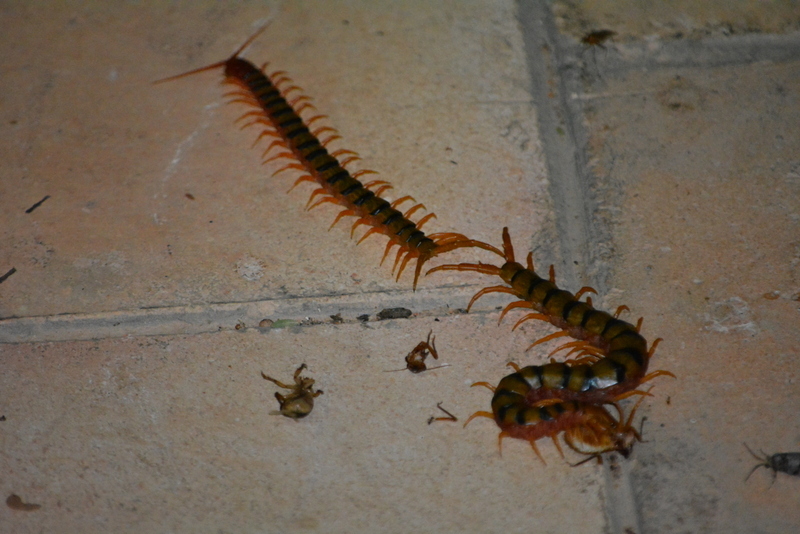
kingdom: Animalia
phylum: Arthropoda
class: Chilopoda
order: Scolopendromorpha
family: Scolopendridae
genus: Scolopendra
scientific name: Scolopendra morsitans
